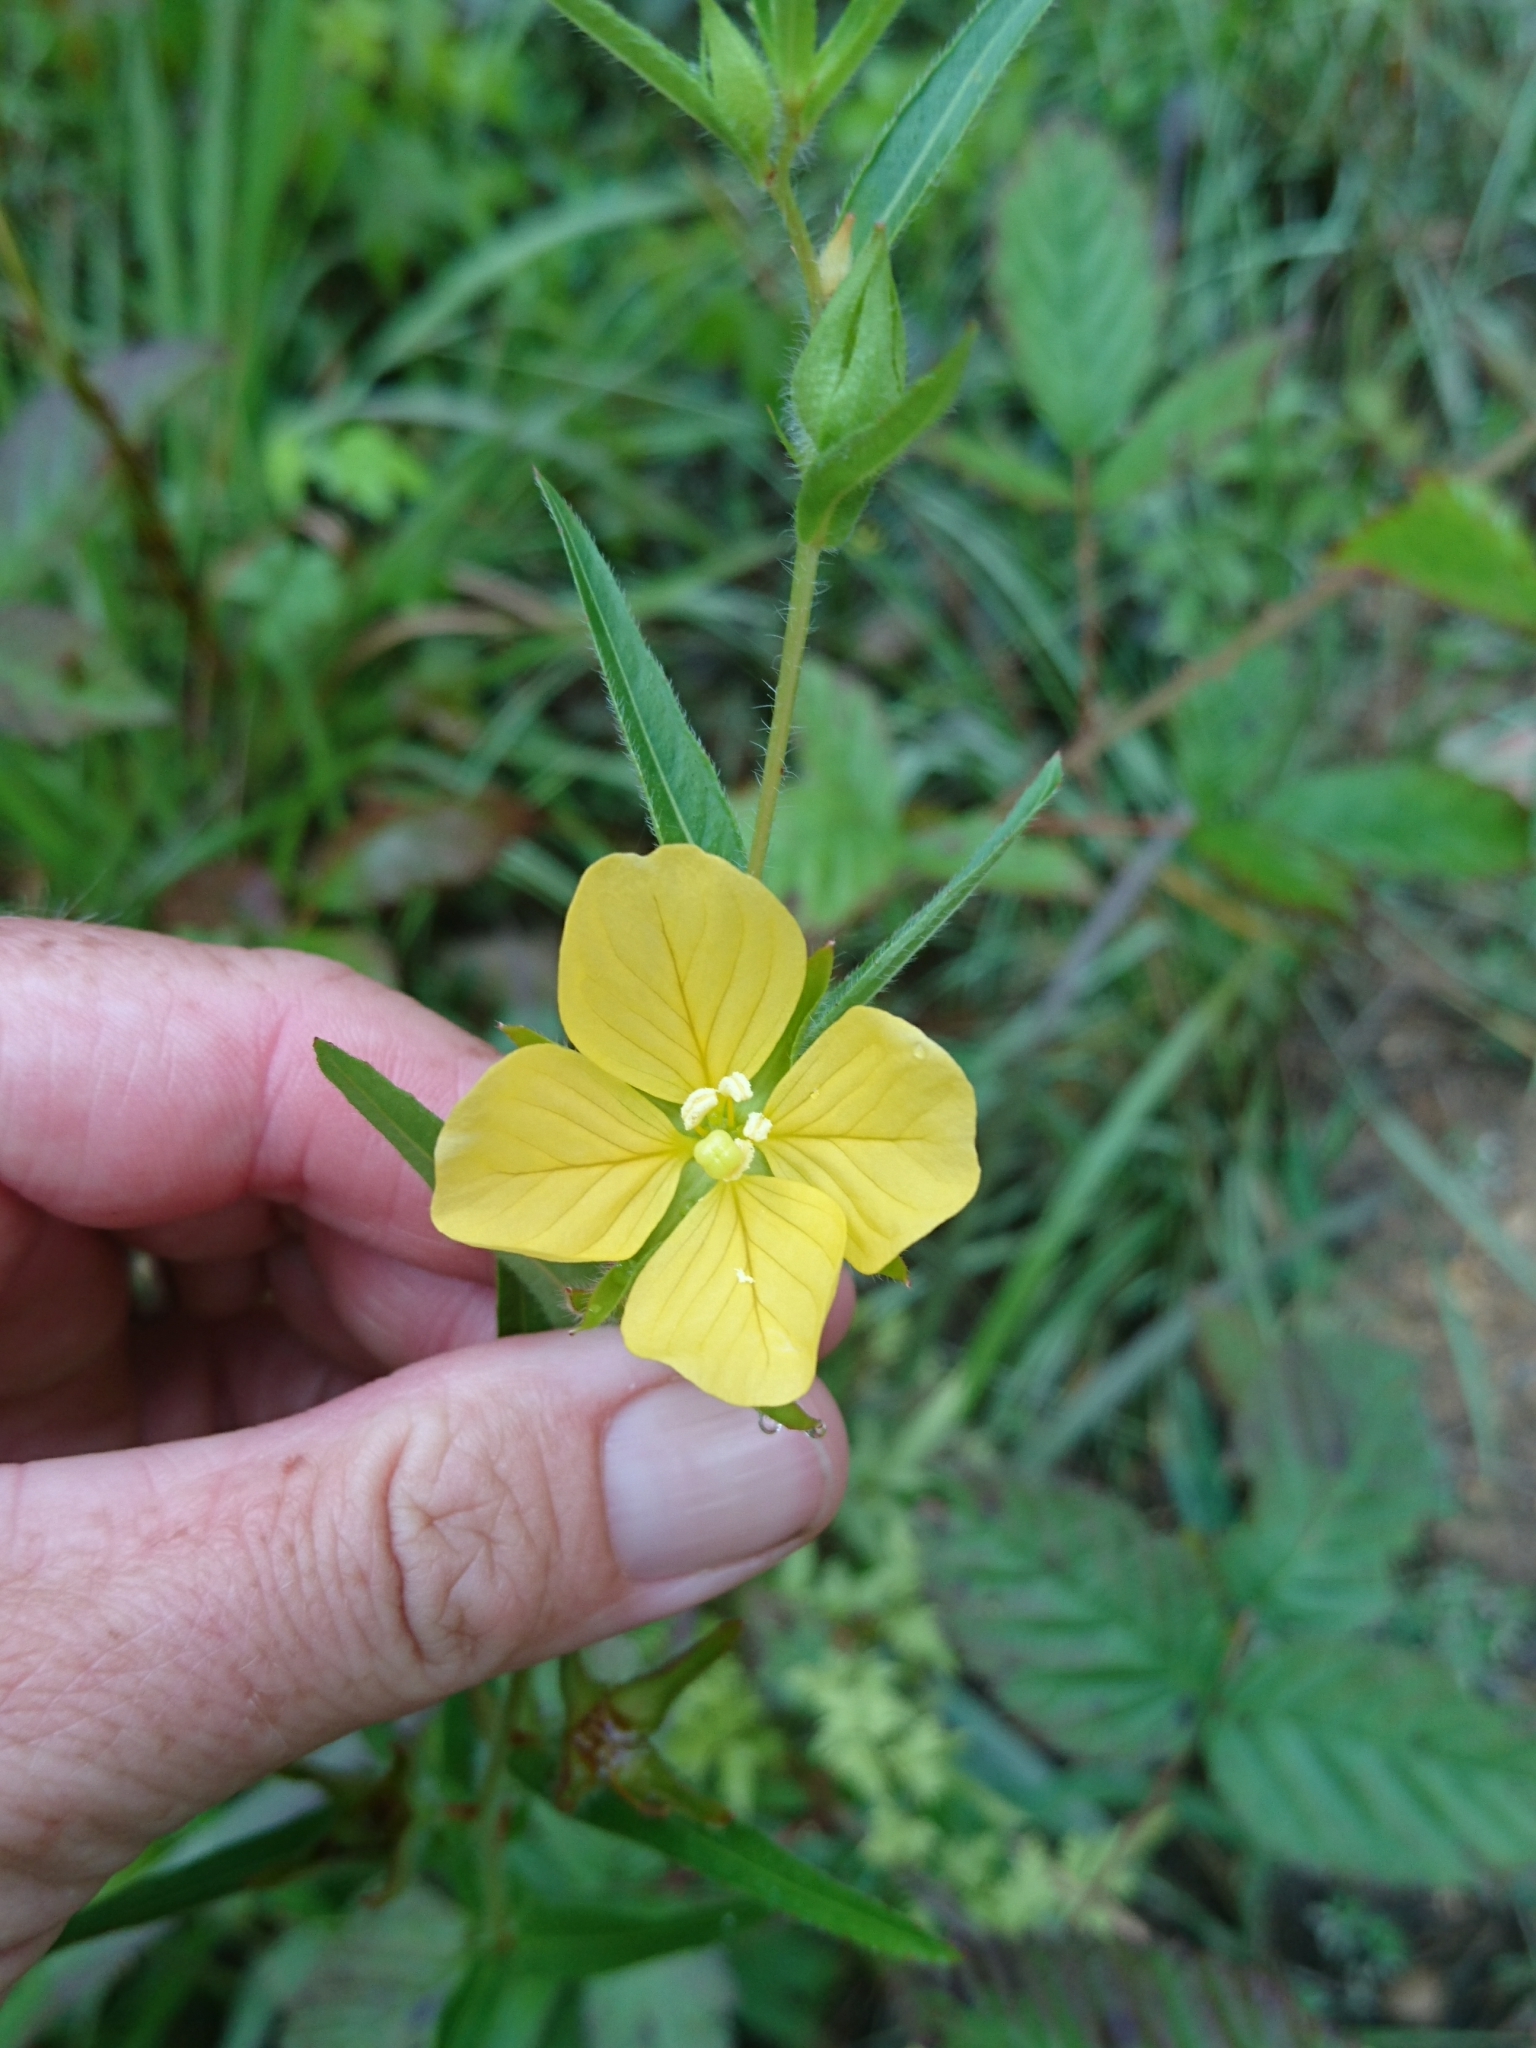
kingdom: Plantae
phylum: Tracheophyta
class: Magnoliopsida
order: Myrtales
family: Onagraceae
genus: Ludwigia
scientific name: Ludwigia hirtella
